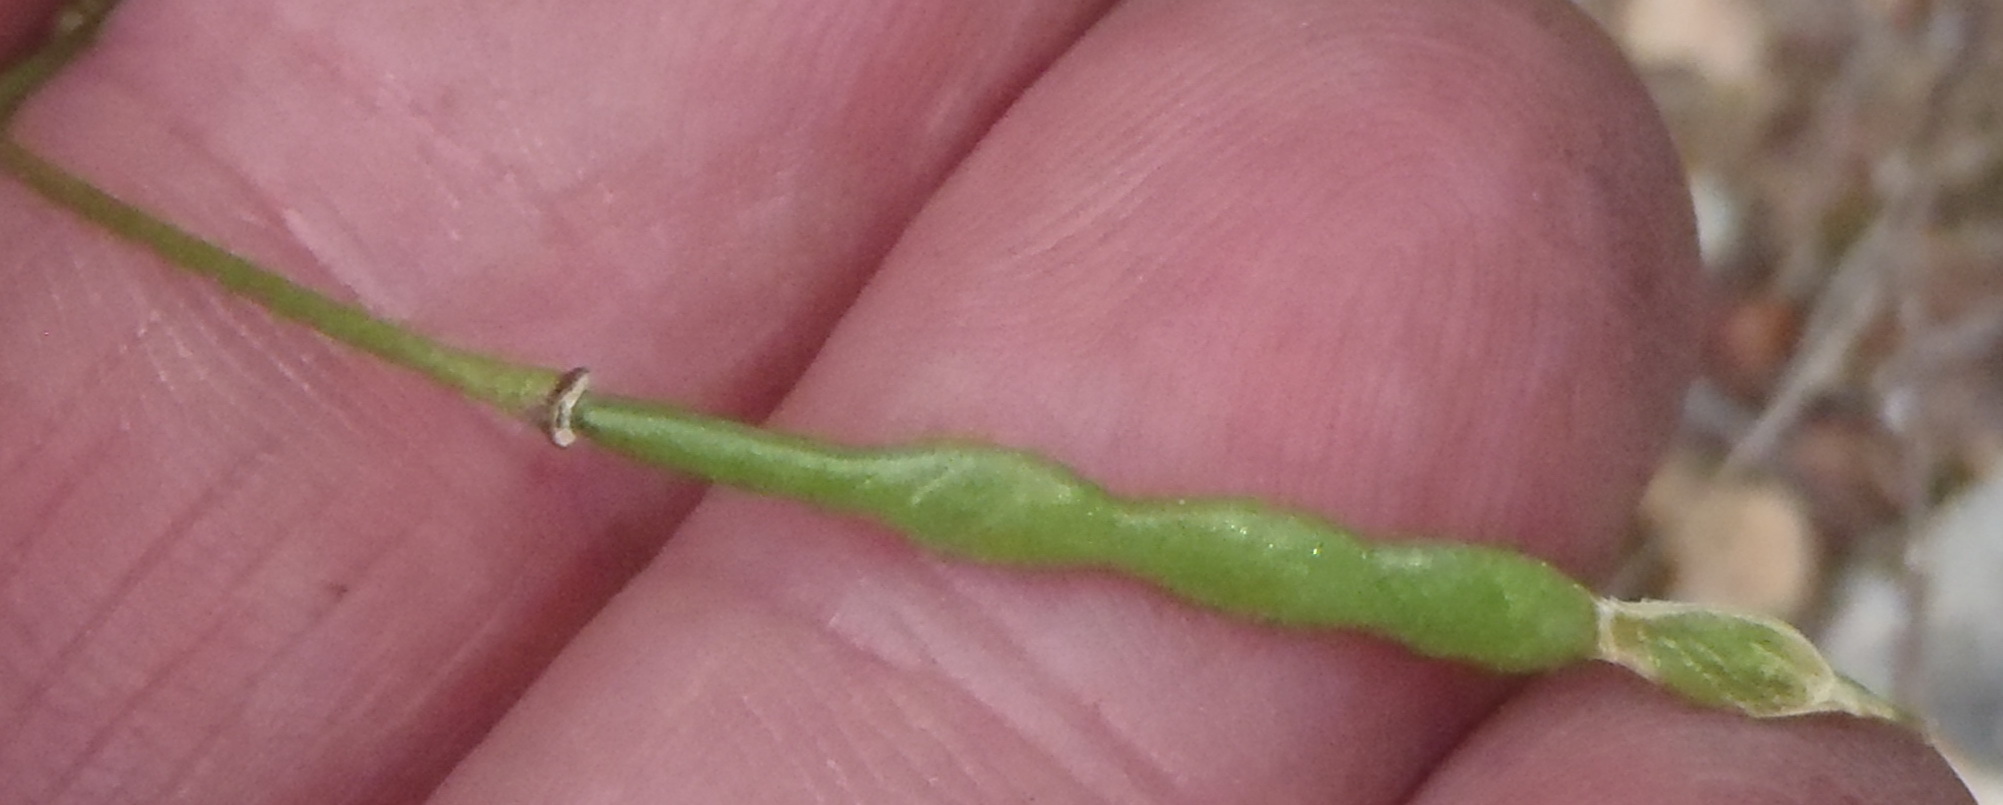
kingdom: Plantae
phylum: Tracheophyta
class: Magnoliopsida
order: Brassicales
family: Brassicaceae
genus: Heliophila
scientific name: Heliophila subulata
